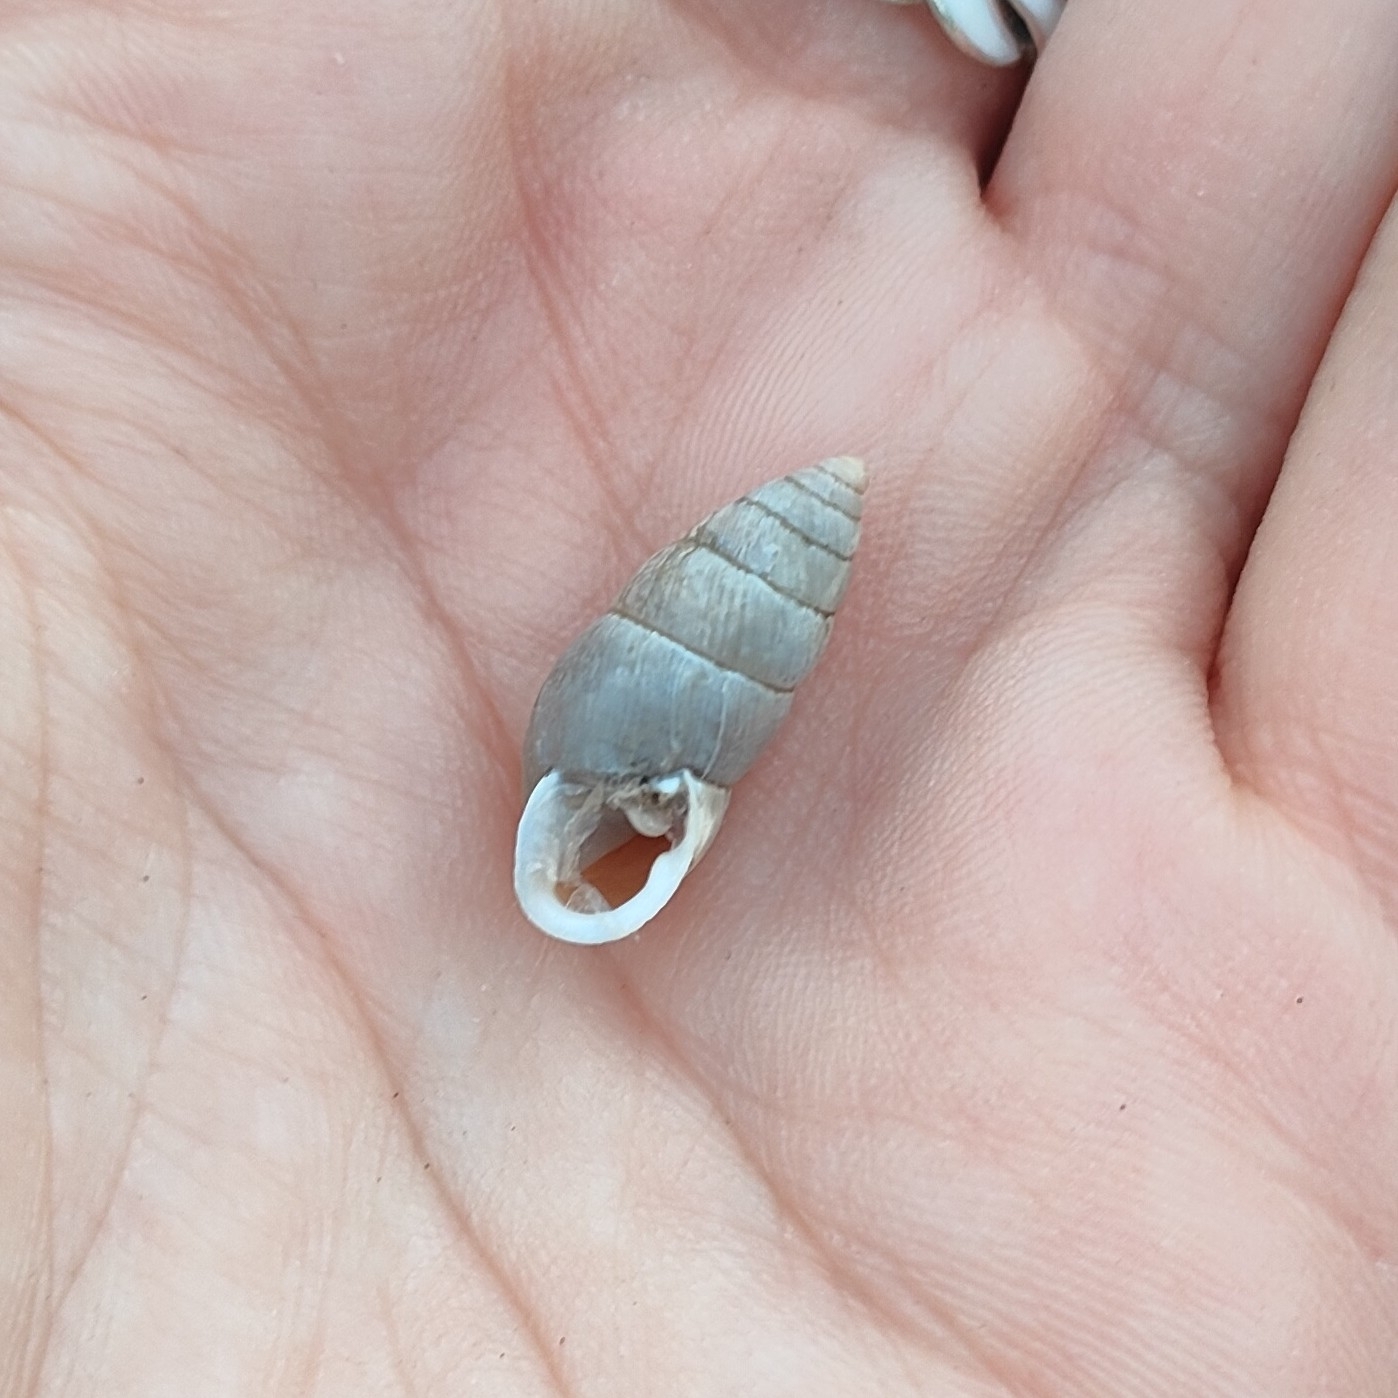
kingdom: Animalia
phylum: Mollusca
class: Gastropoda
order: Stylommatophora
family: Enidae
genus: Chondrula
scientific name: Chondrula tridens
